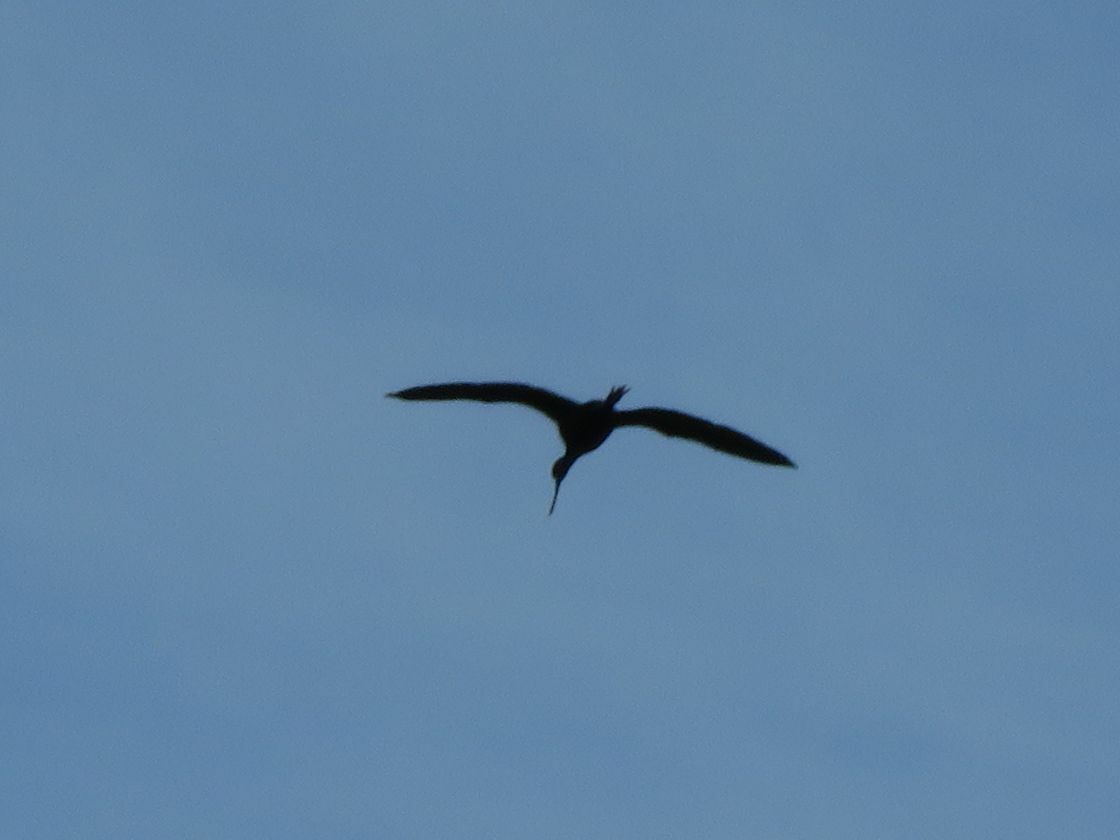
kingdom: Animalia
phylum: Chordata
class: Aves
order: Pelecaniformes
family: Threskiornithidae
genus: Plegadis
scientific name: Plegadis chihi
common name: White-faced ibis
